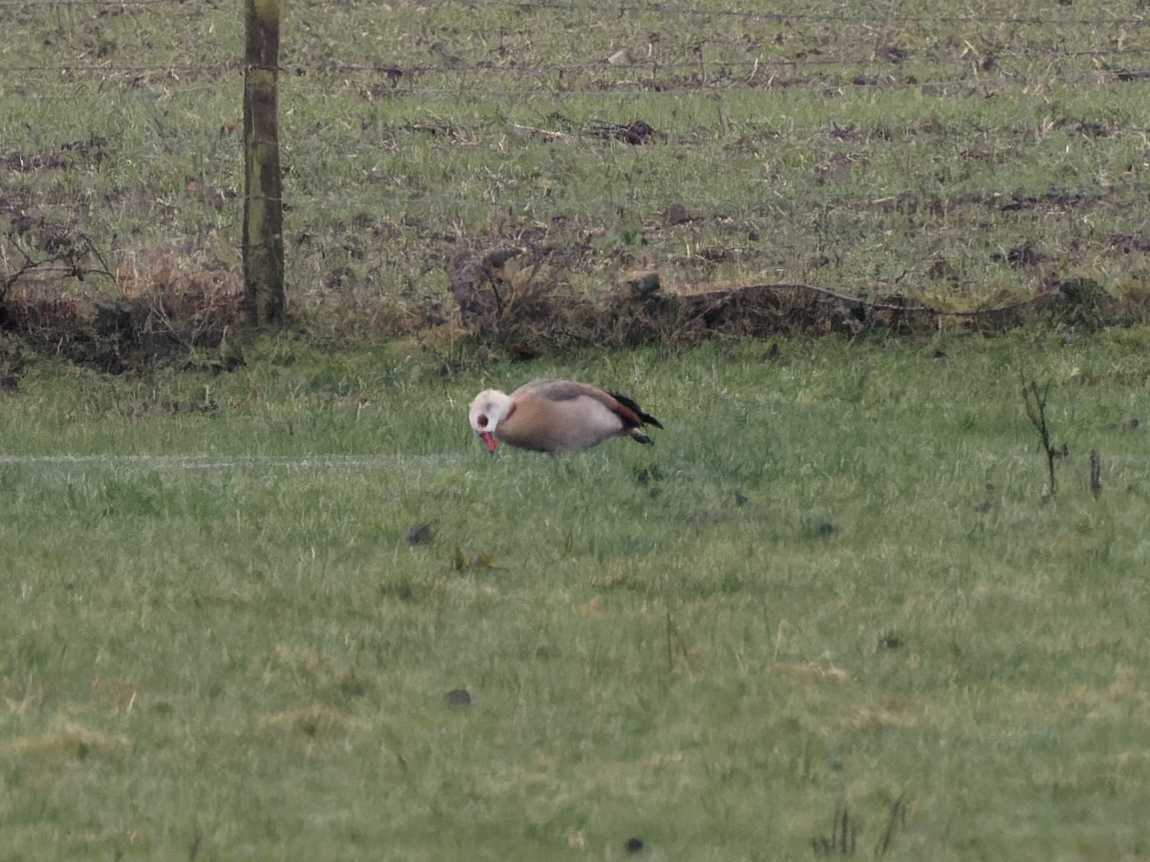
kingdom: Animalia
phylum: Chordata
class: Aves
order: Anseriformes
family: Anatidae
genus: Alopochen
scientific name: Alopochen aegyptiaca
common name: Egyptian goose
